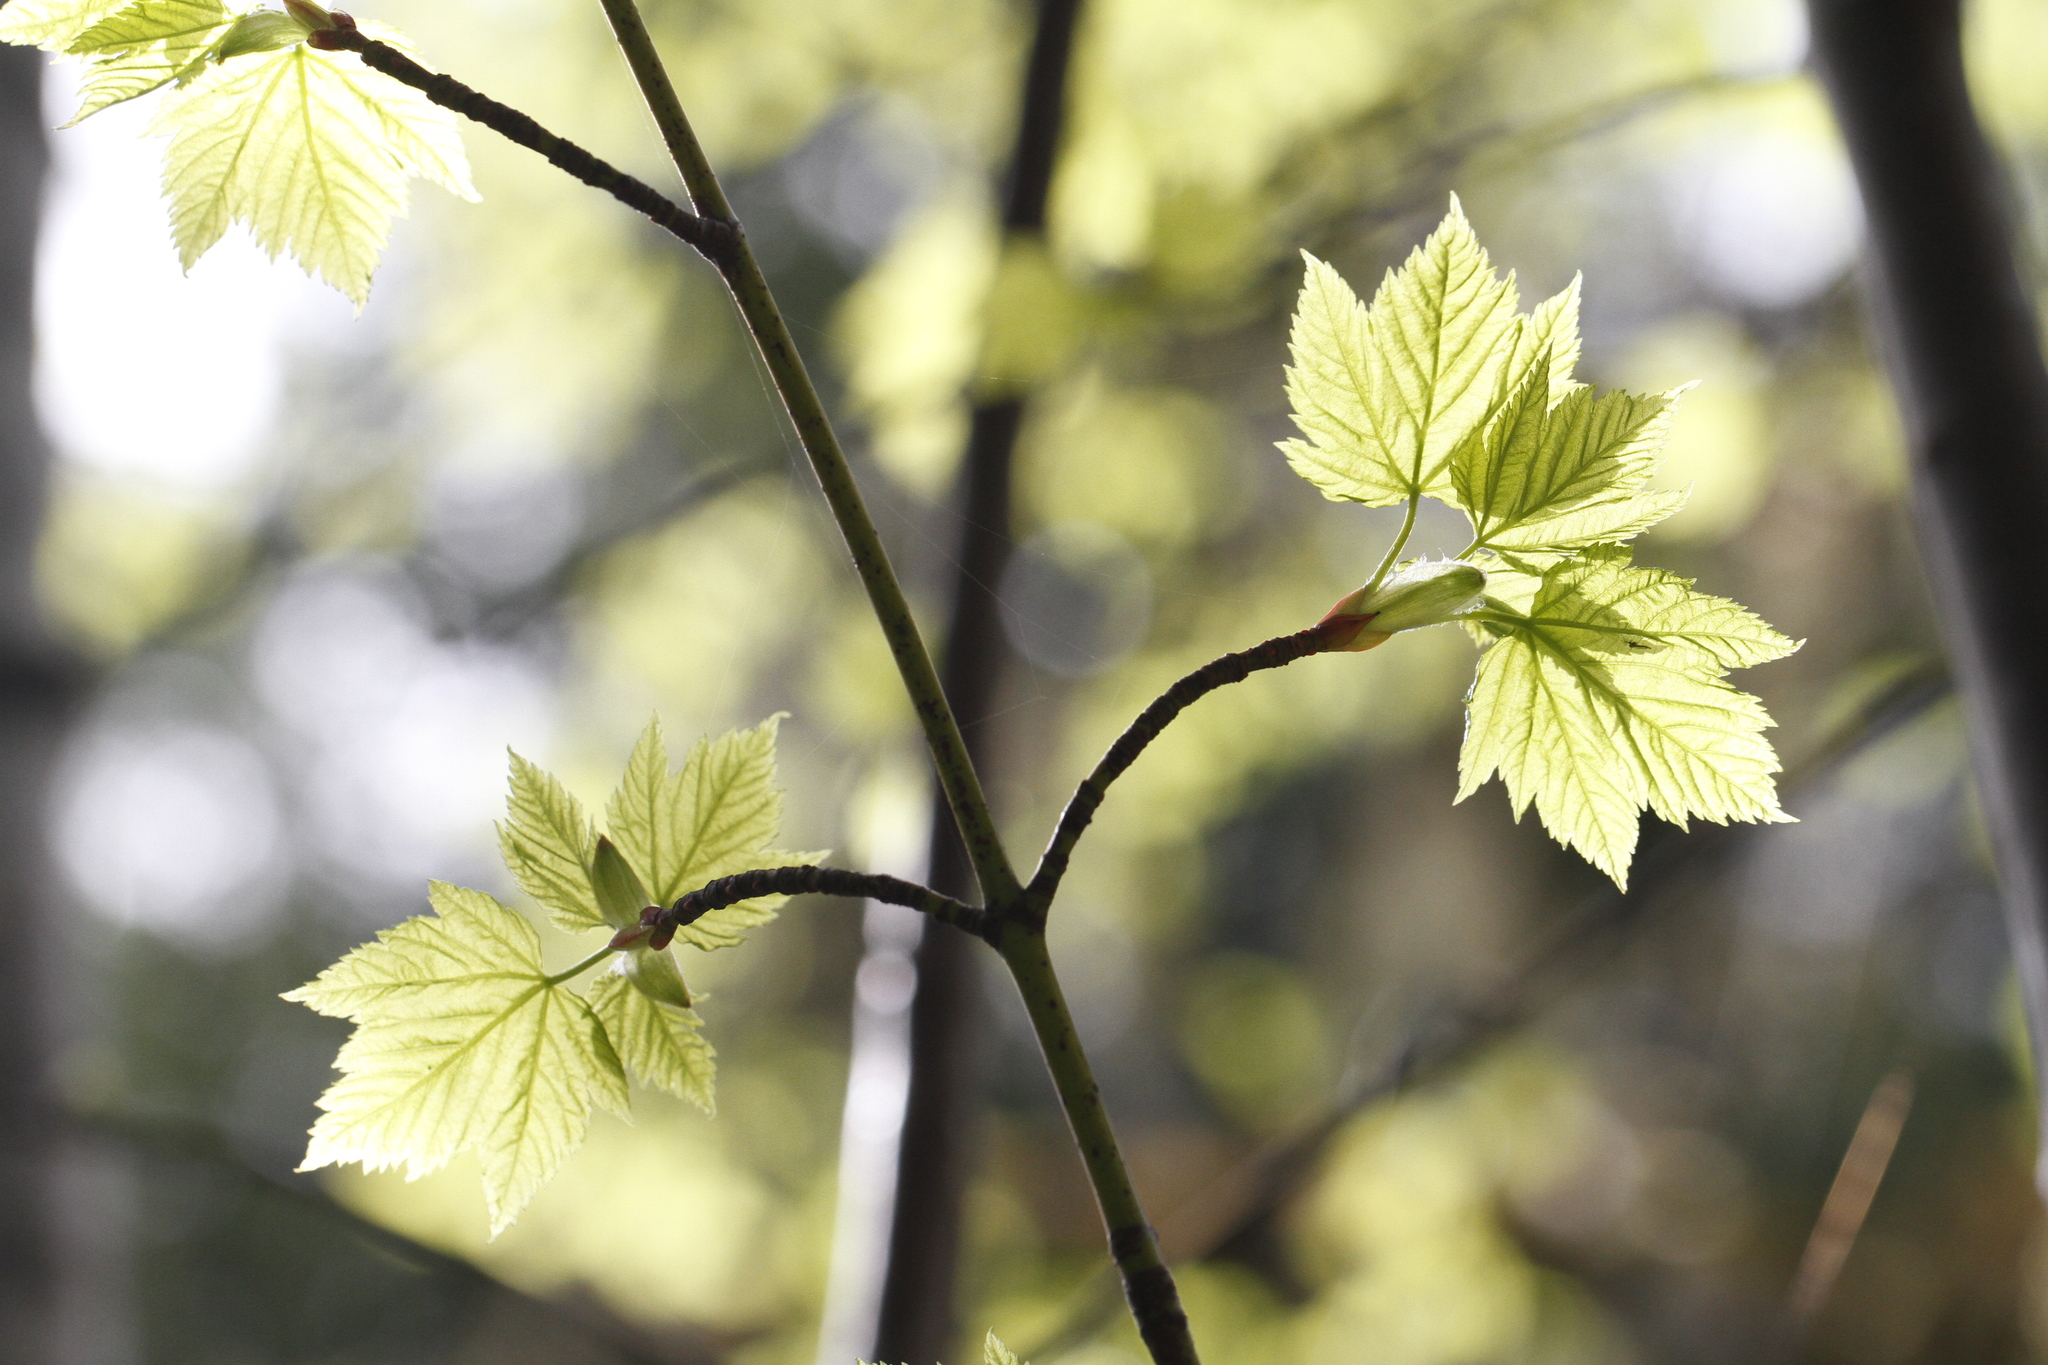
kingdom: Plantae
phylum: Tracheophyta
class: Magnoliopsida
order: Sapindales
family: Sapindaceae
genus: Acer
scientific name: Acer glabrum
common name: Rocky mountain maple
